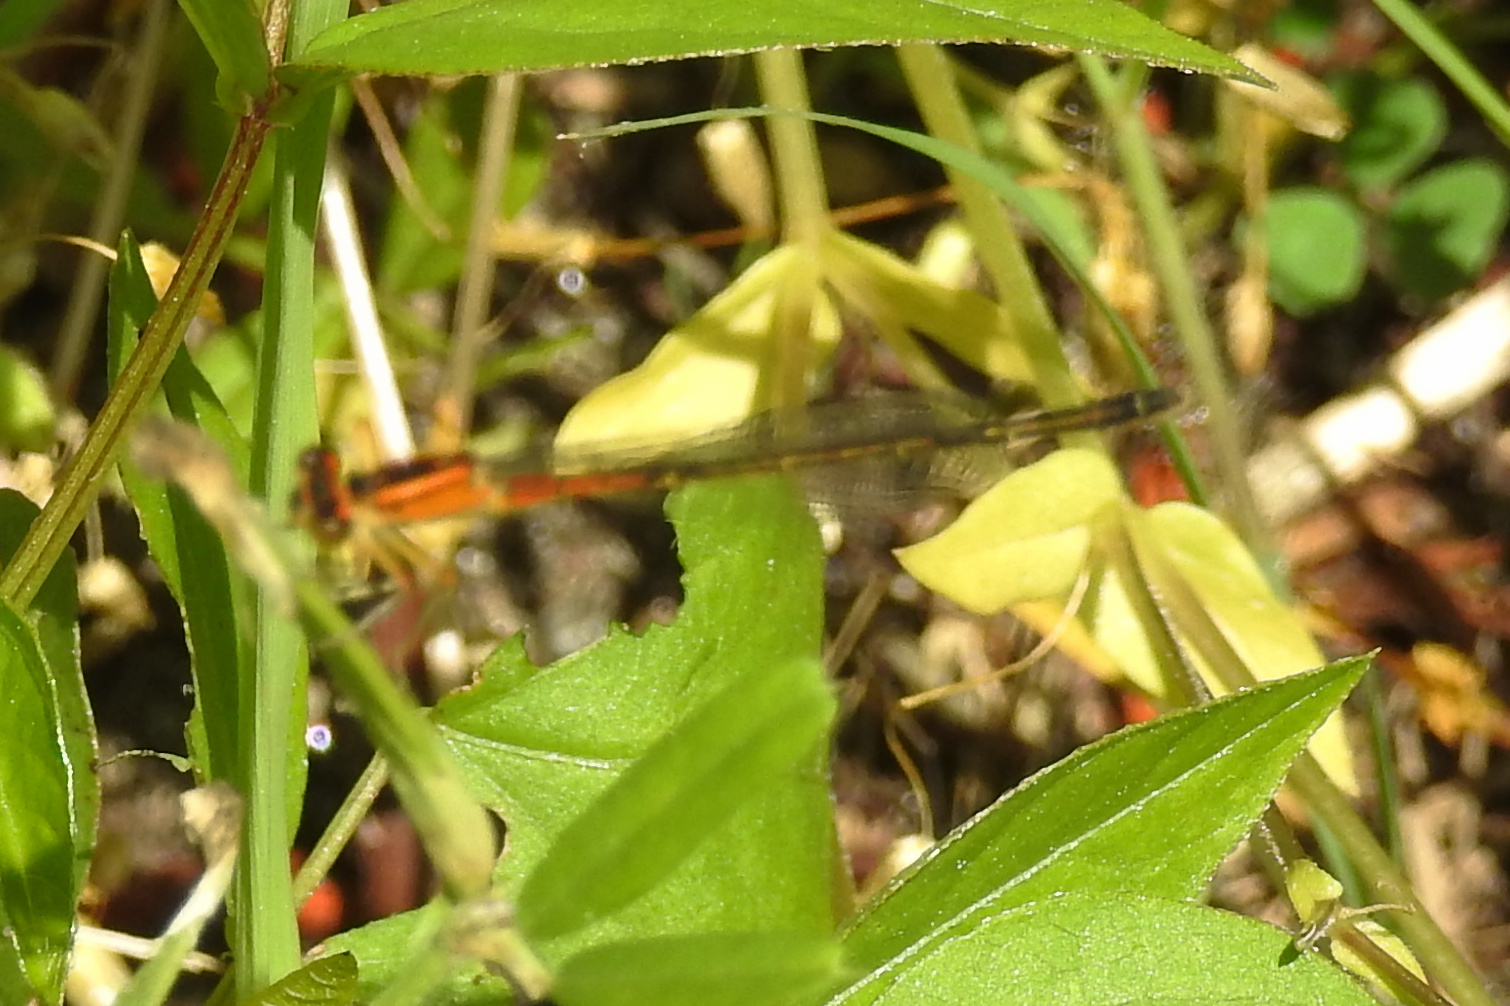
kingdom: Animalia
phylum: Arthropoda
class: Insecta
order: Odonata
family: Coenagrionidae
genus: Ischnura
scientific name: Ischnura verticalis
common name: Eastern forktail
